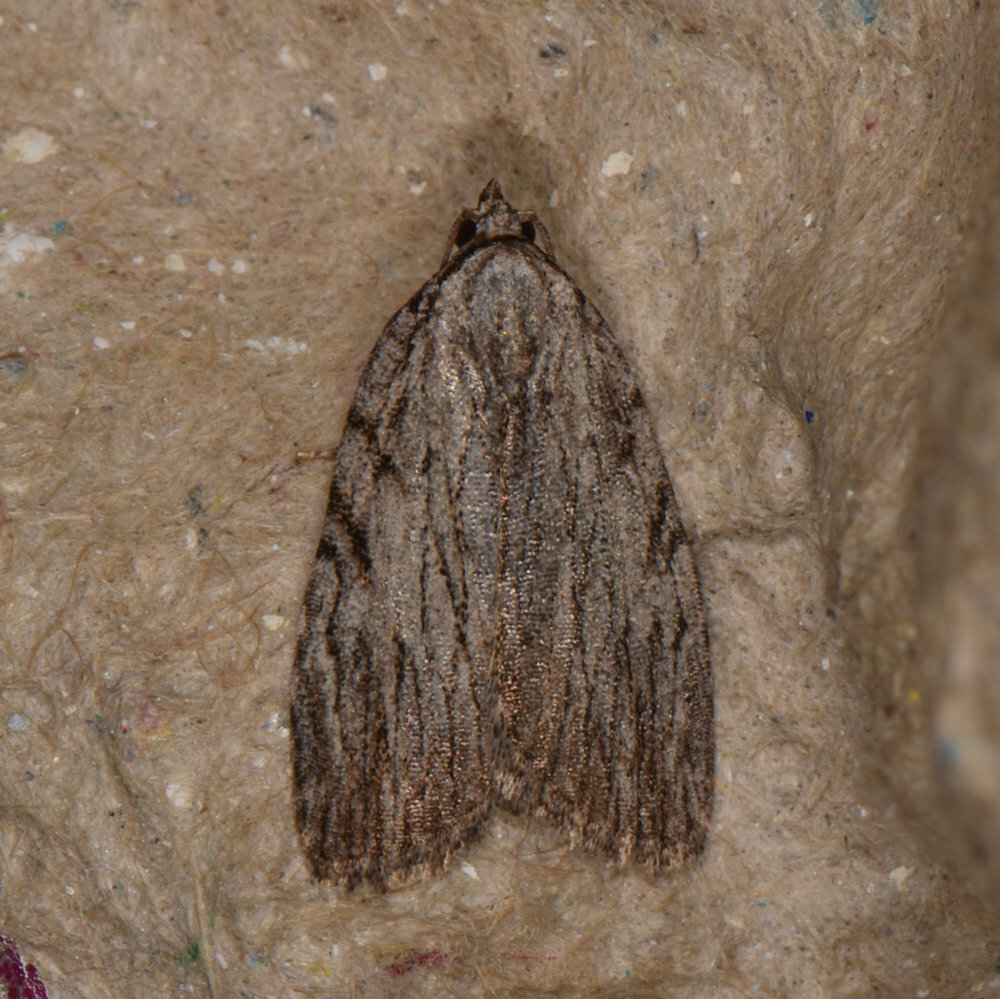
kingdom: Animalia
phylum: Arthropoda
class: Insecta
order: Lepidoptera
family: Noctuidae
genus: Balsa
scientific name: Balsa tristrigella
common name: Three-lined balsa moth
